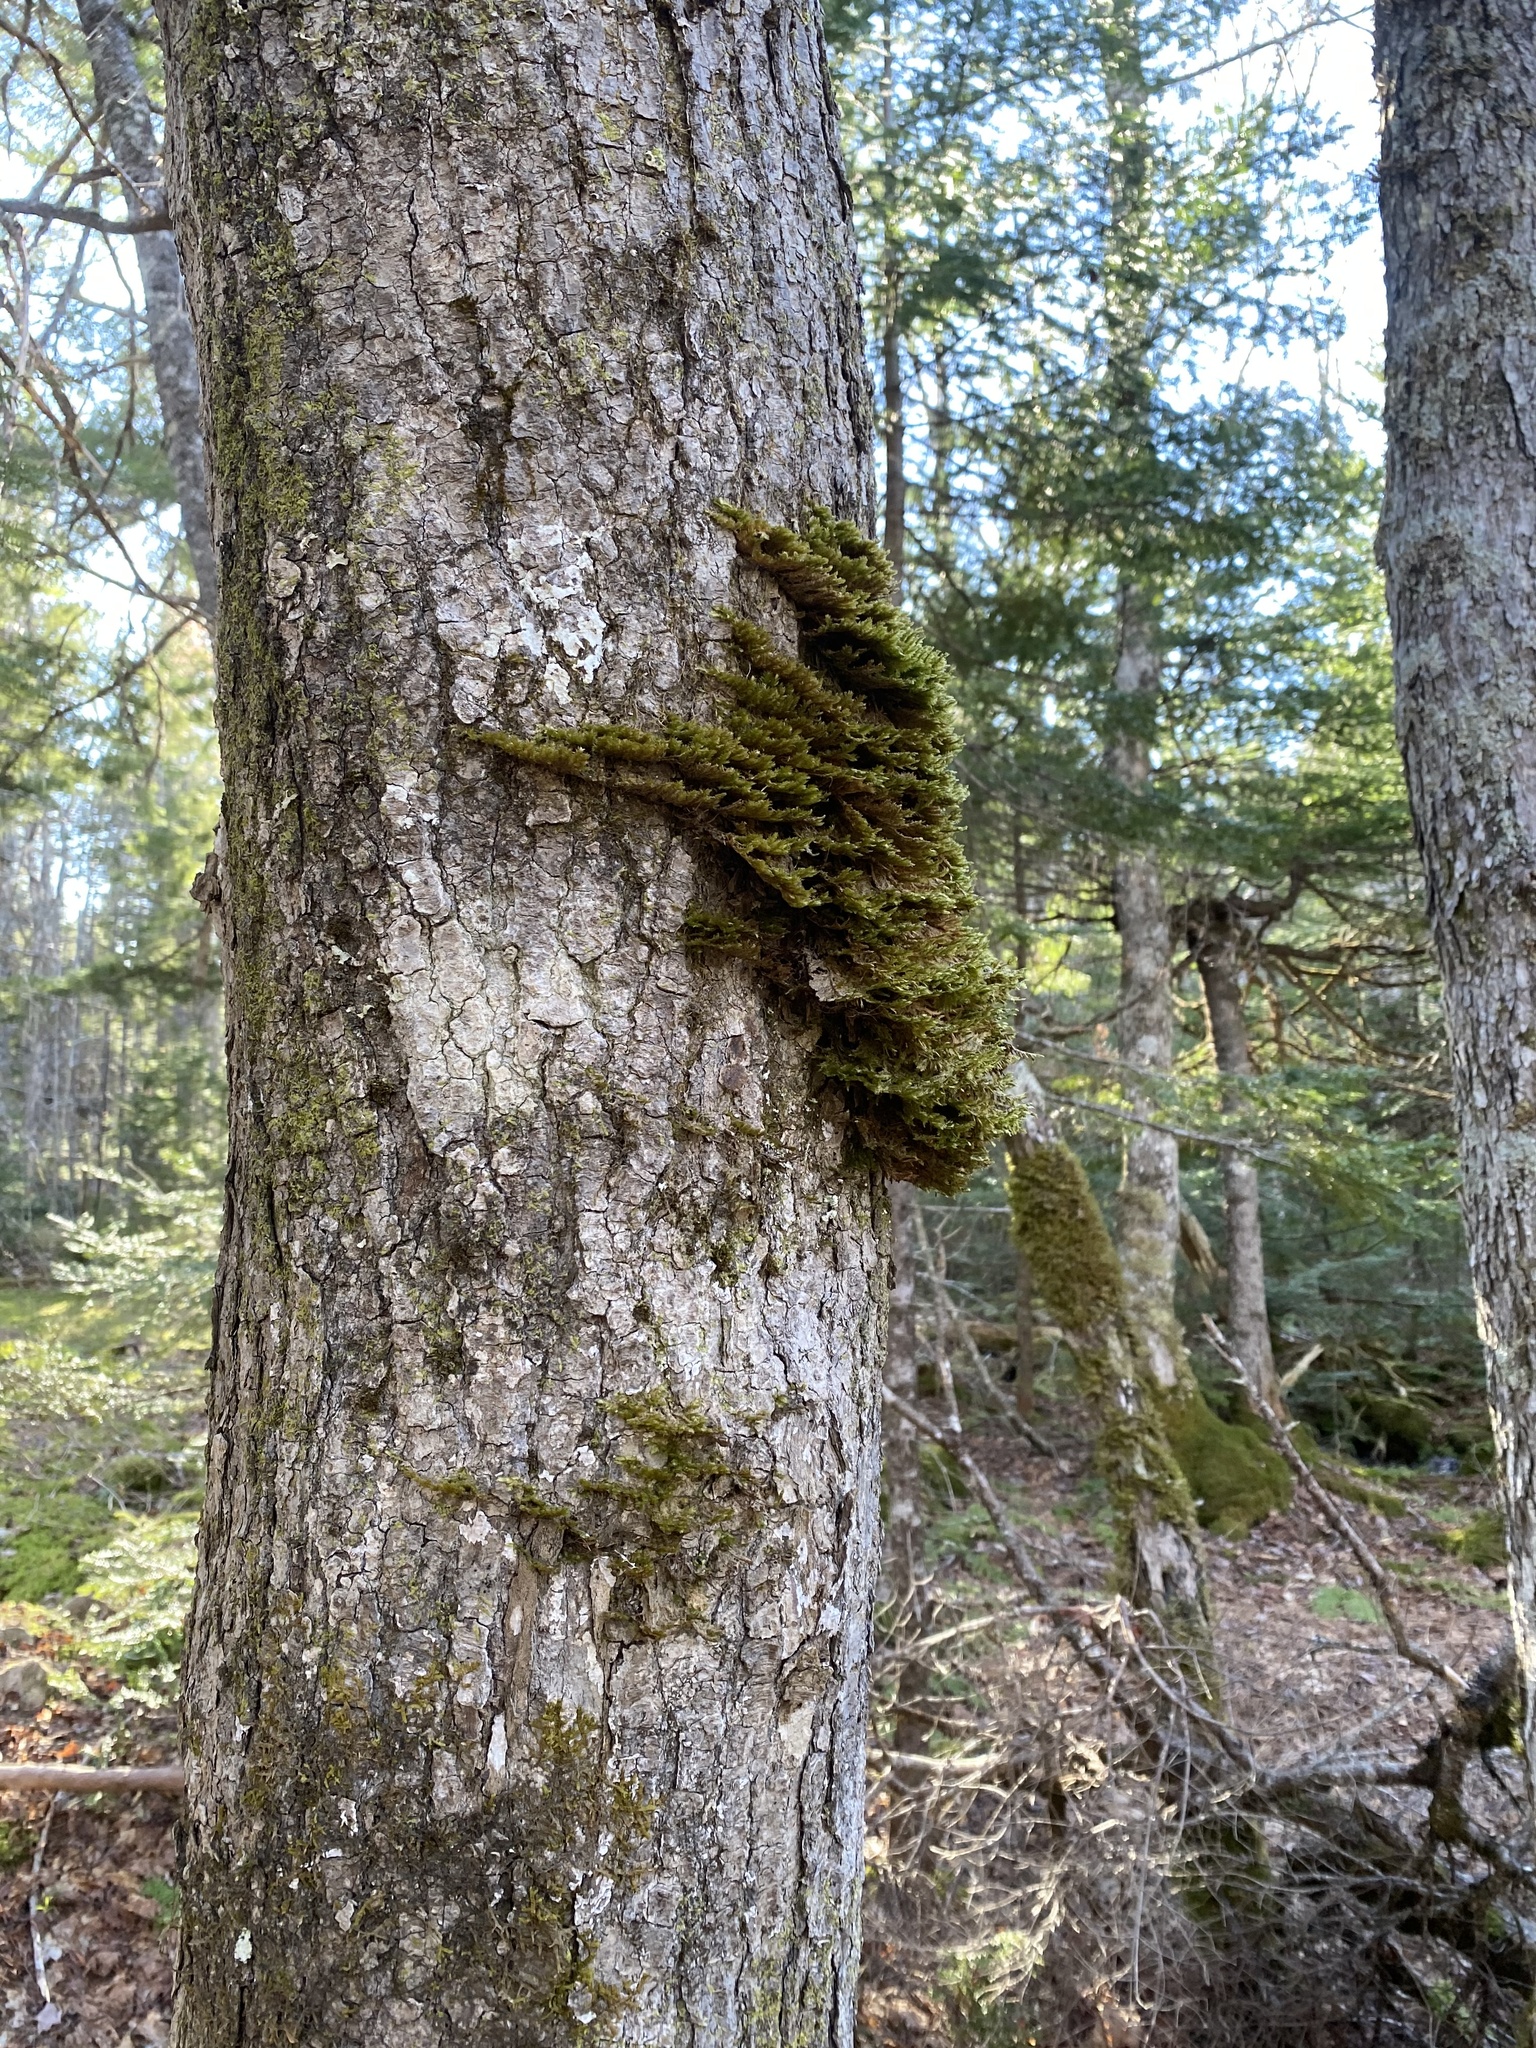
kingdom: Plantae
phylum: Bryophyta
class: Bryopsida
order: Hypnales
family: Neckeraceae
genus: Neckera
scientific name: Neckera pennata
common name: Feathery neckera
